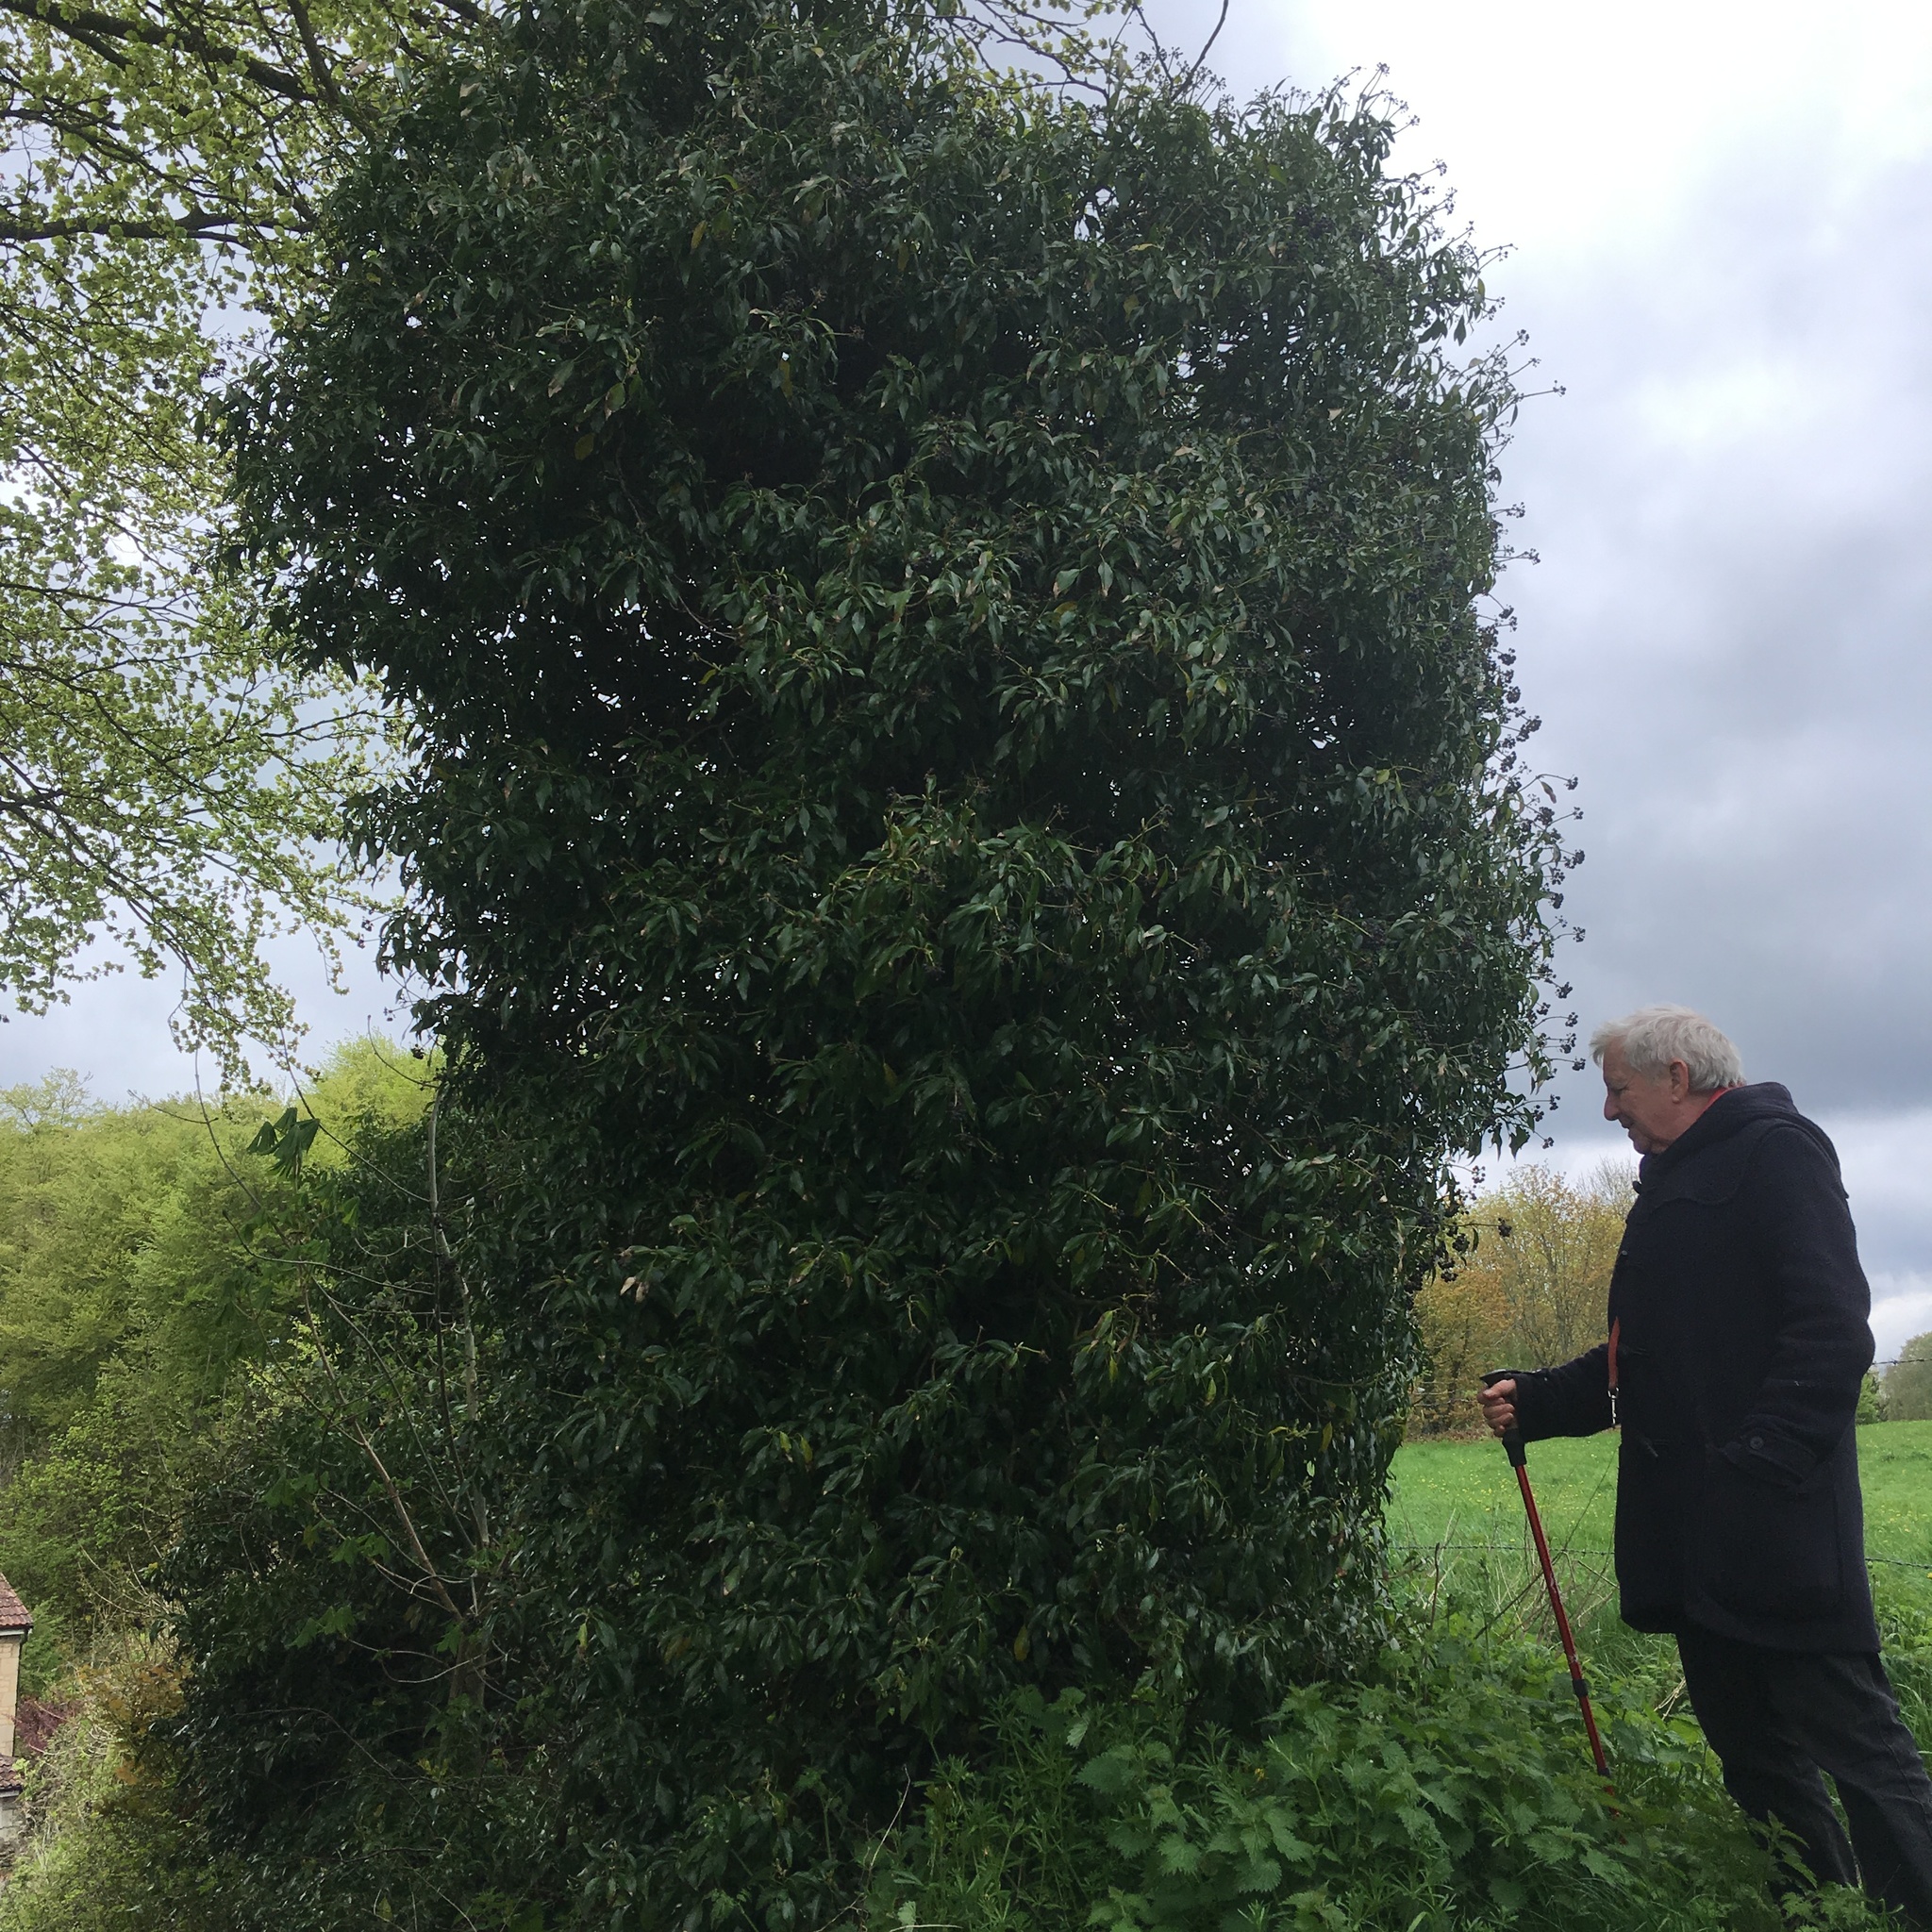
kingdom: Plantae
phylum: Tracheophyta
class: Magnoliopsida
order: Apiales
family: Araliaceae
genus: Hedera
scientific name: Hedera helix
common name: Ivy
